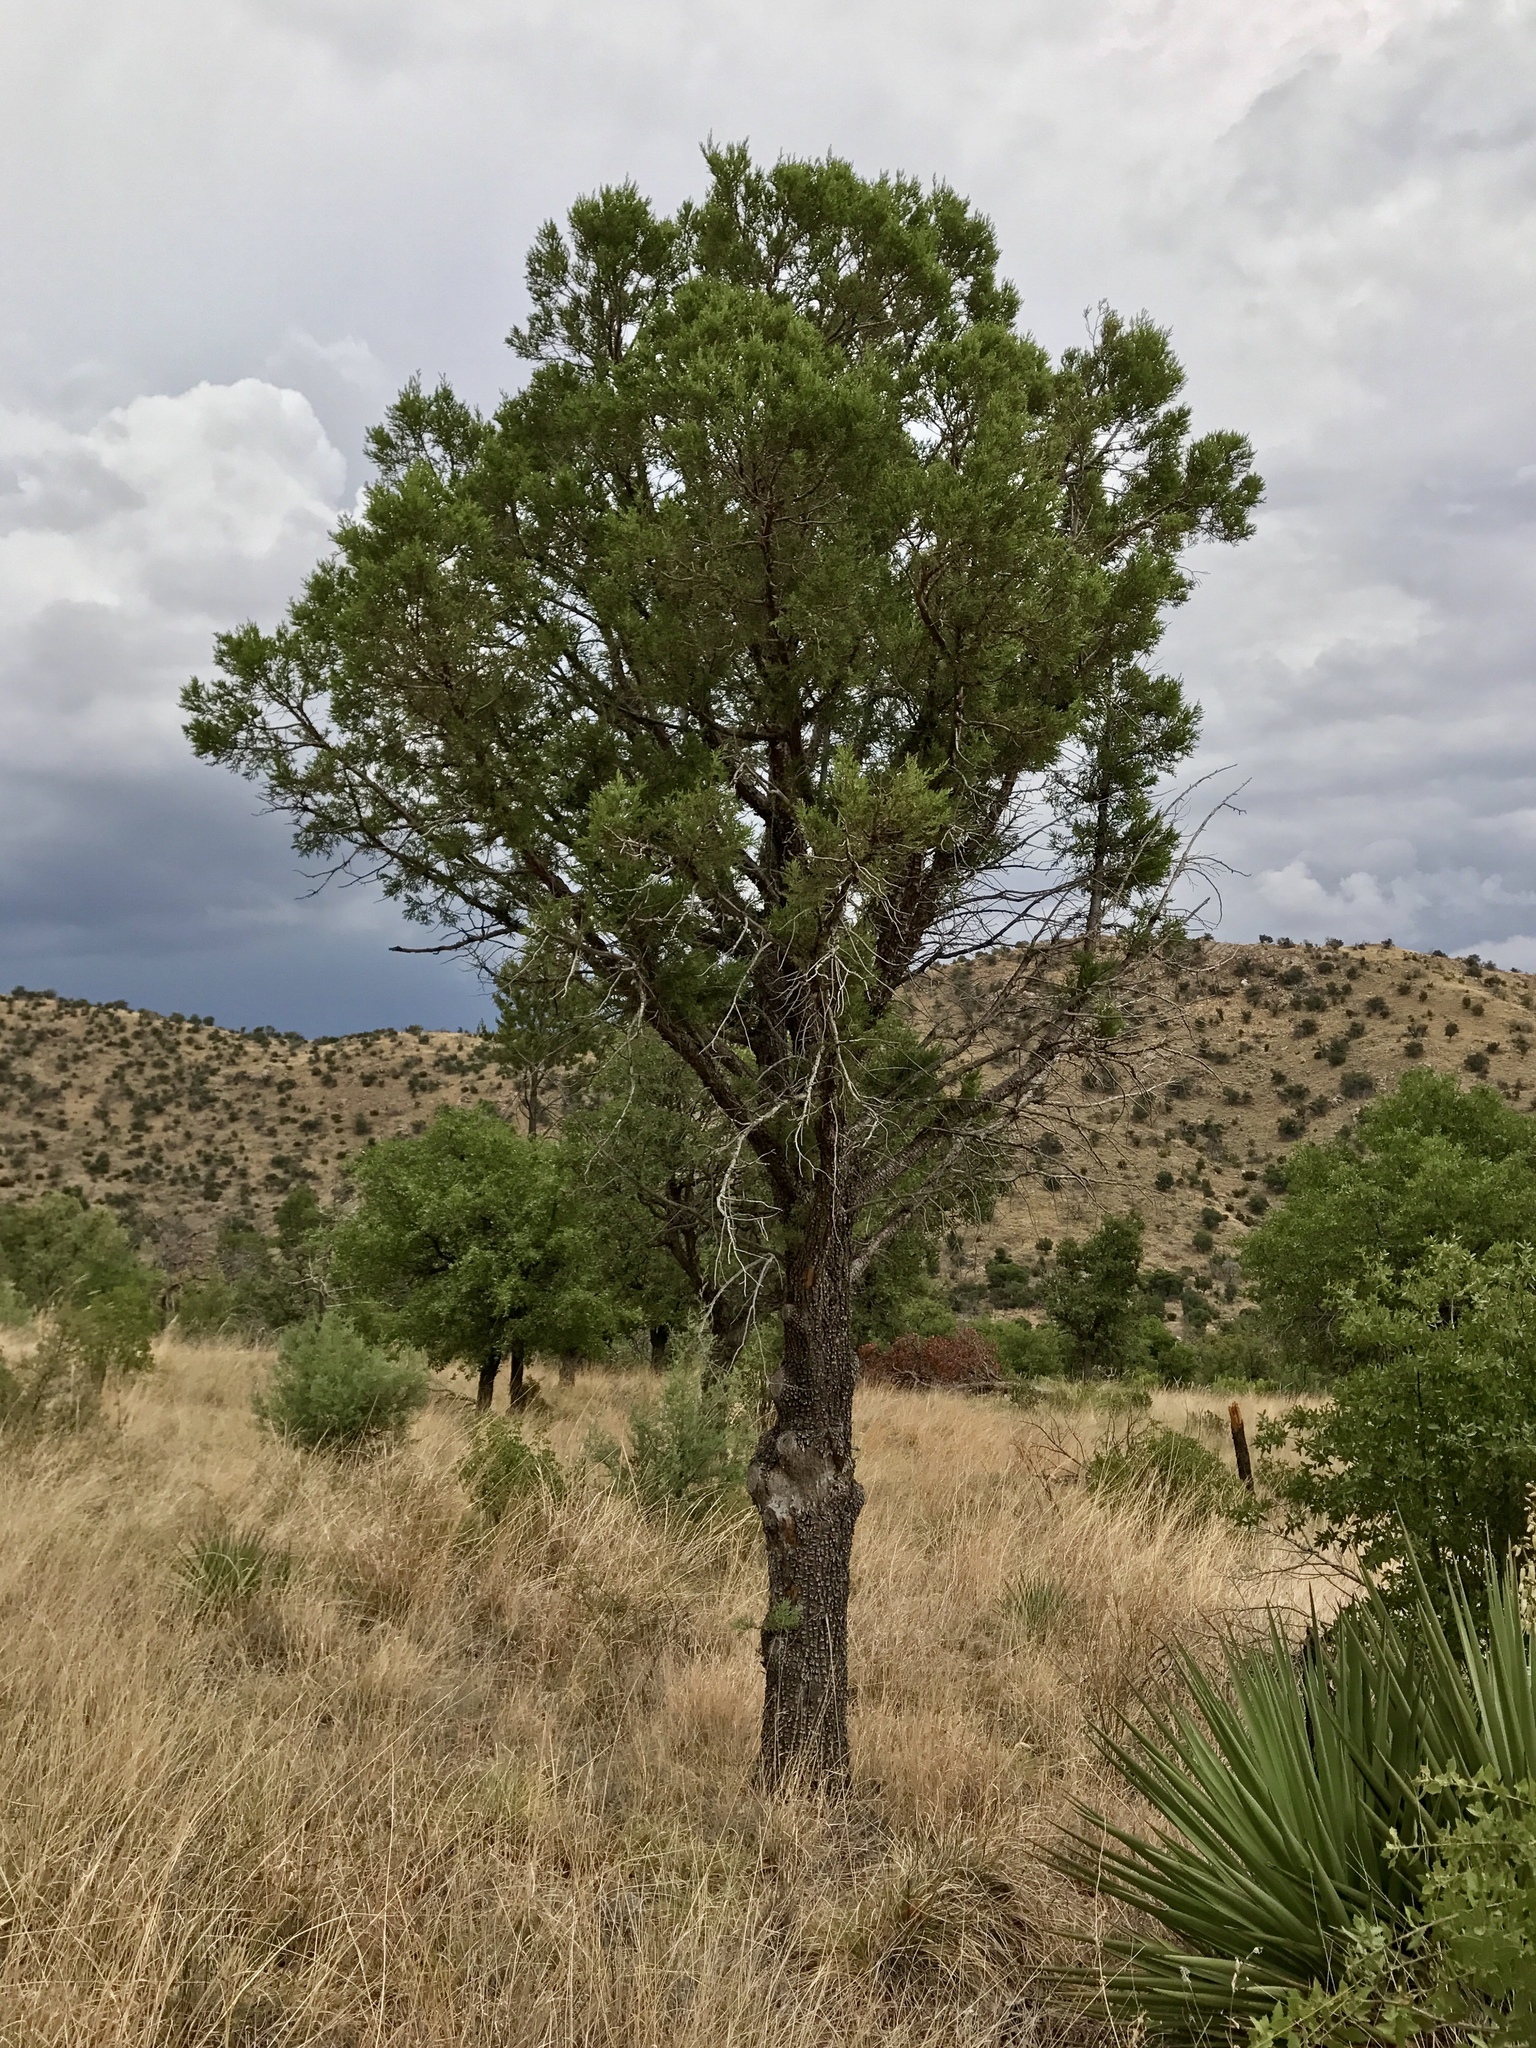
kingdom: Plantae
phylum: Tracheophyta
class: Pinopsida
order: Pinales
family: Cupressaceae
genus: Juniperus
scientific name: Juniperus deppeana
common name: Alligator juniper
